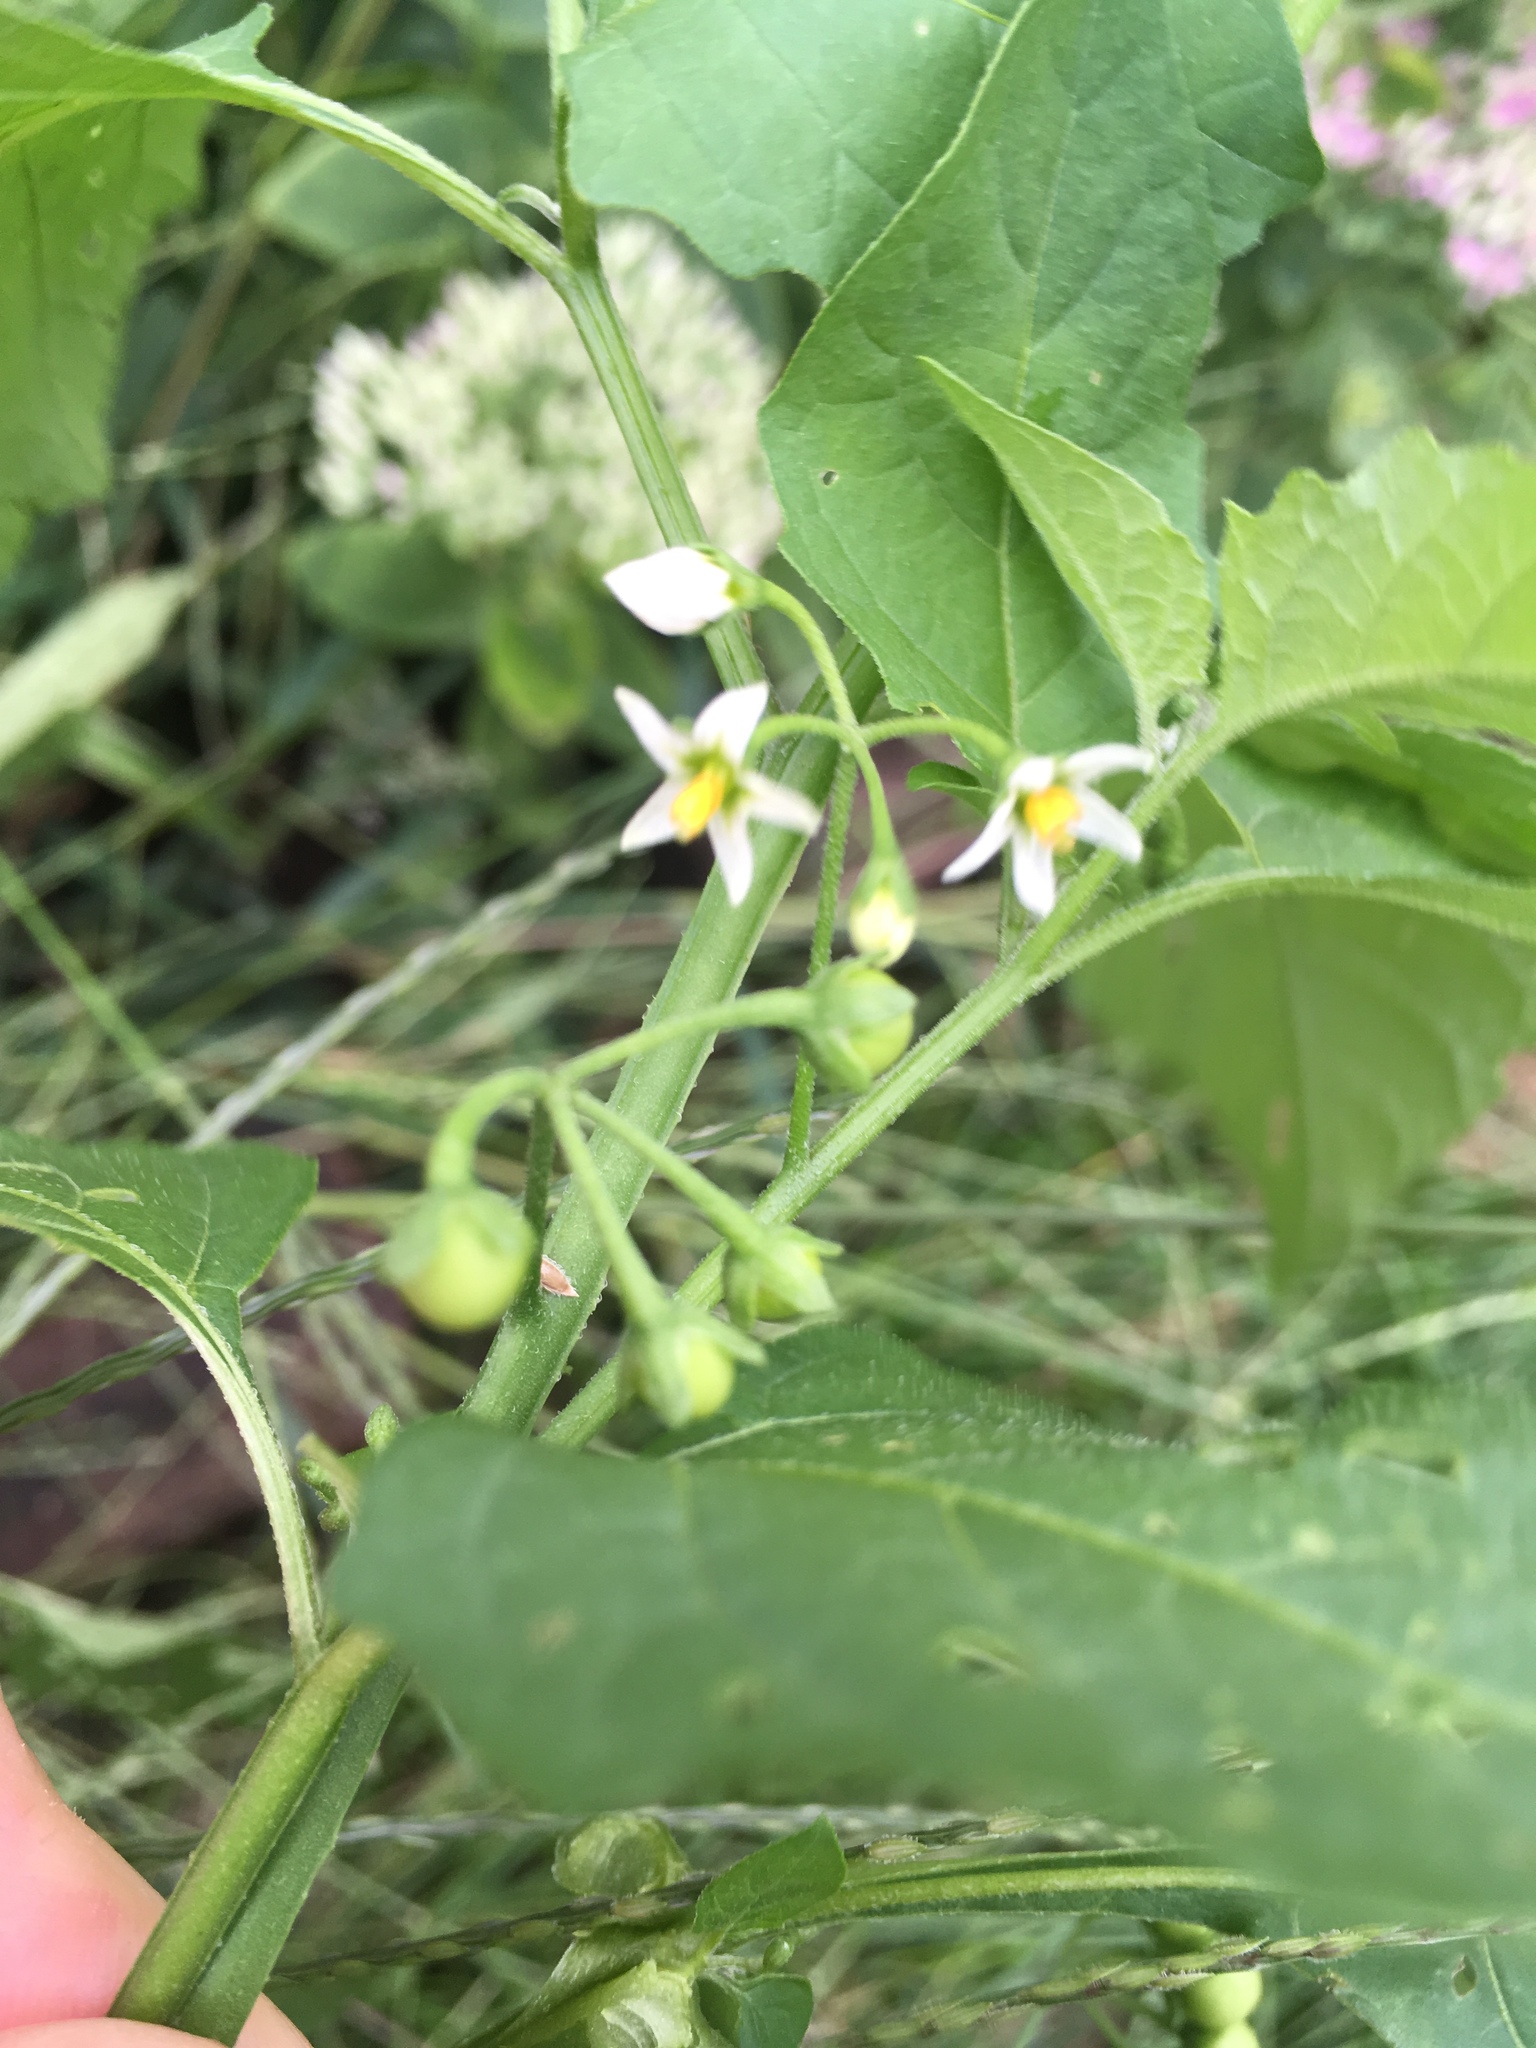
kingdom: Plantae
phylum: Tracheophyta
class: Magnoliopsida
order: Solanales
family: Solanaceae
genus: Solanum
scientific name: Solanum emulans
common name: Eastern black nightshade
